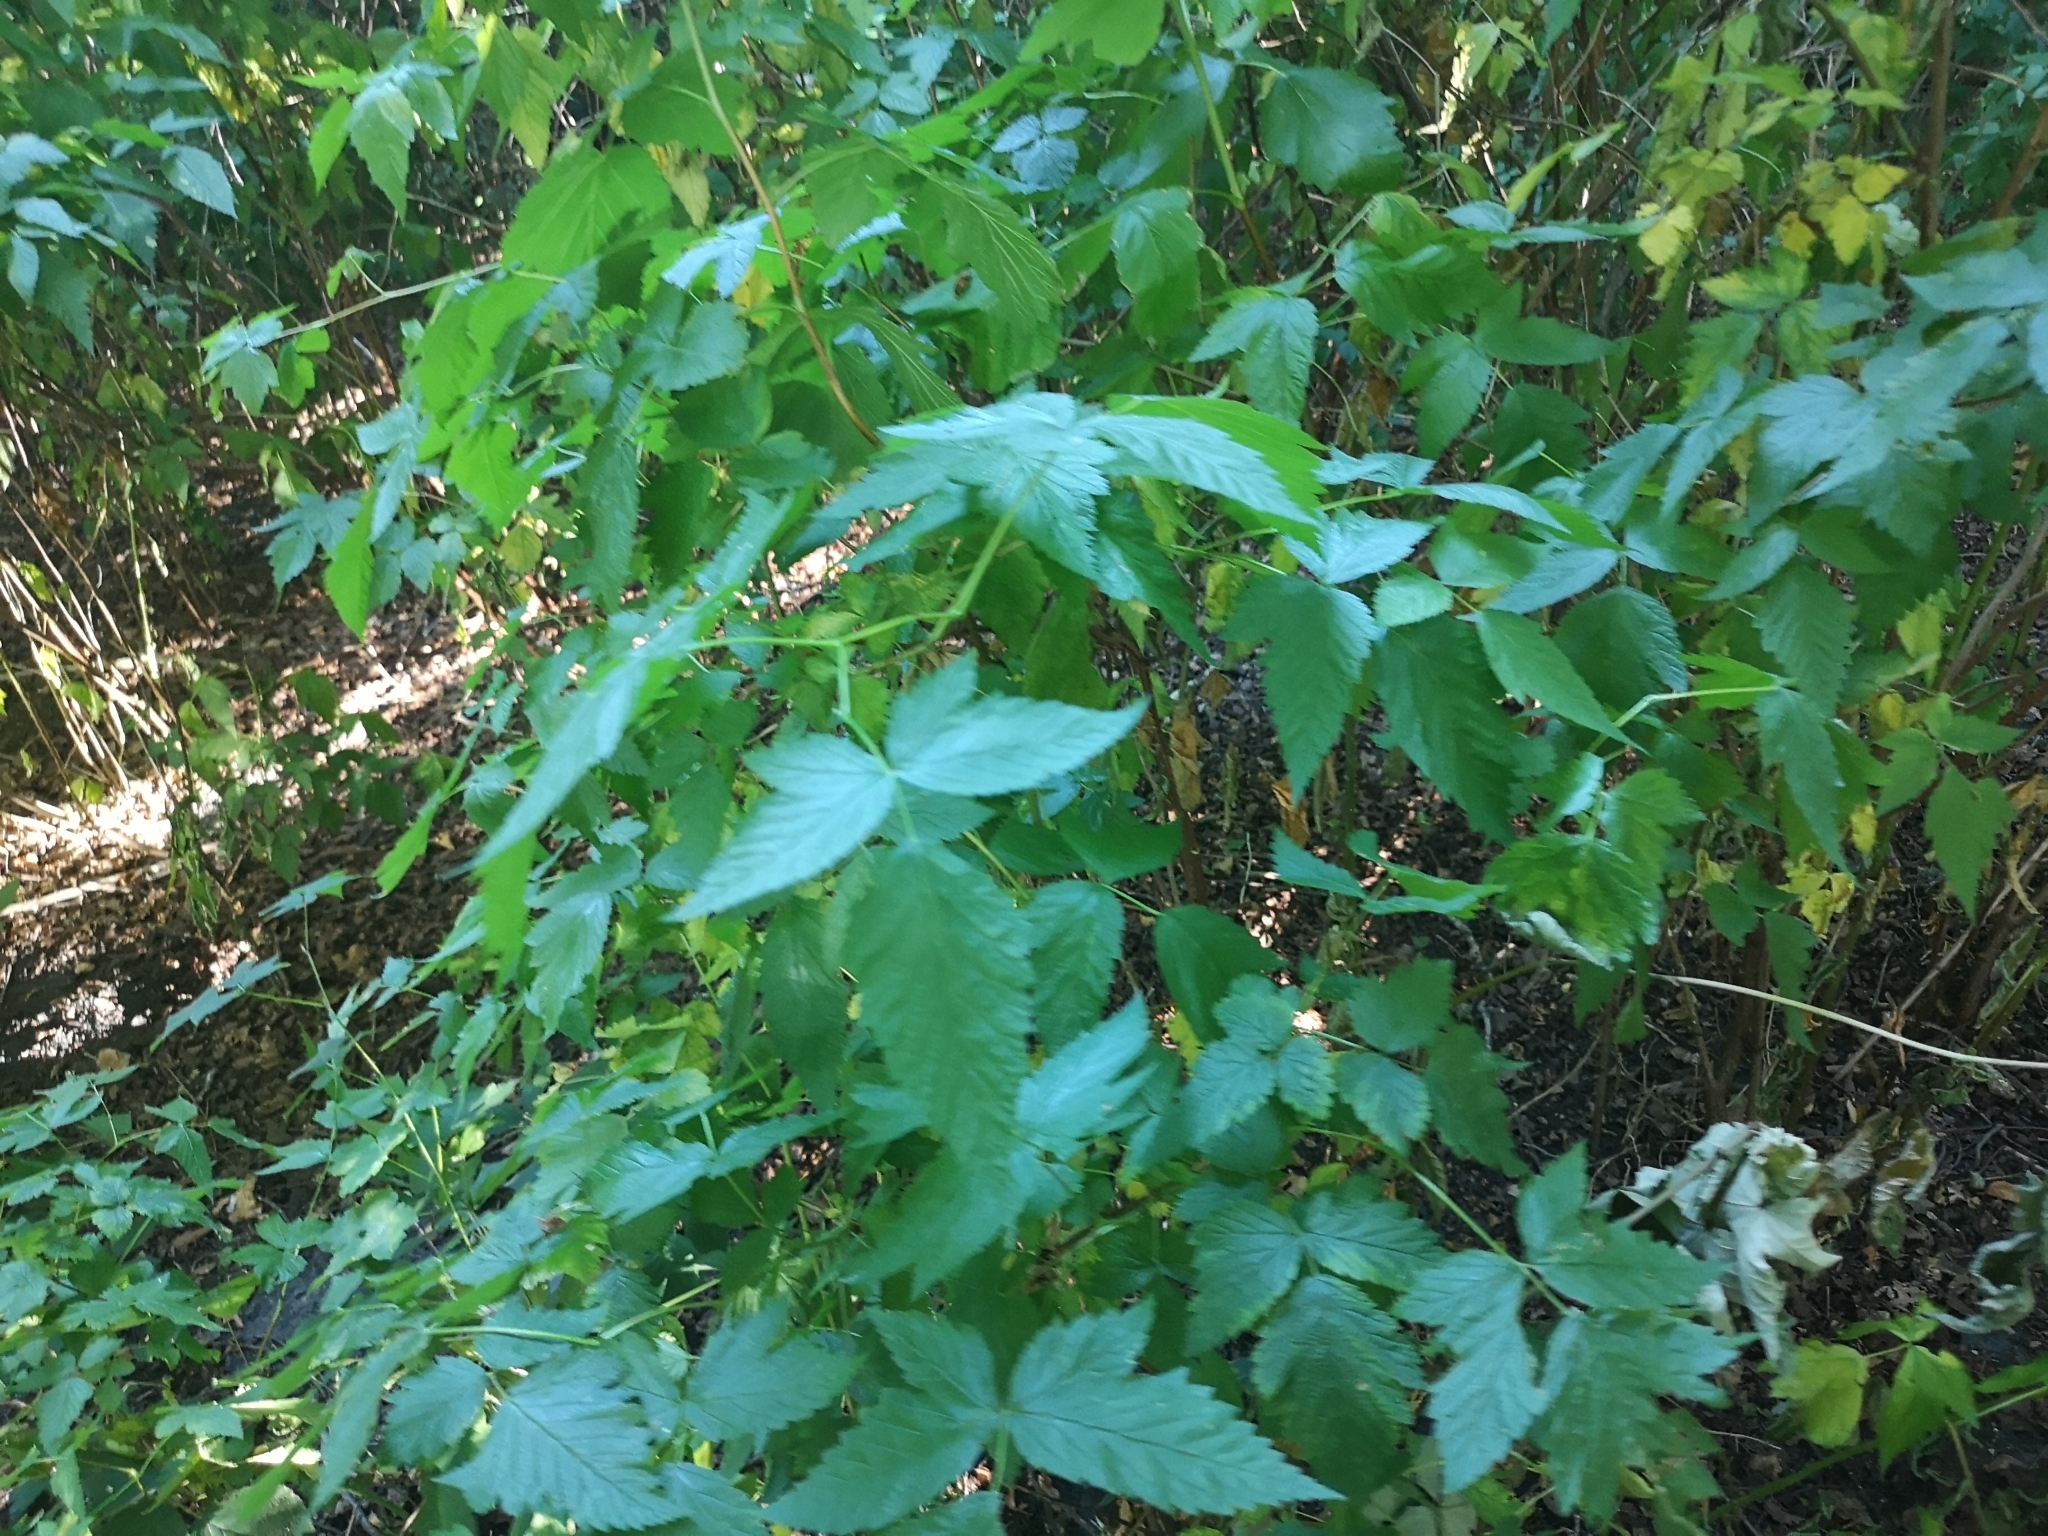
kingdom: Plantae
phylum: Tracheophyta
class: Magnoliopsida
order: Rosales
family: Rosaceae
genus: Rubus
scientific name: Rubus spectabilis
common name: Salmonberry
